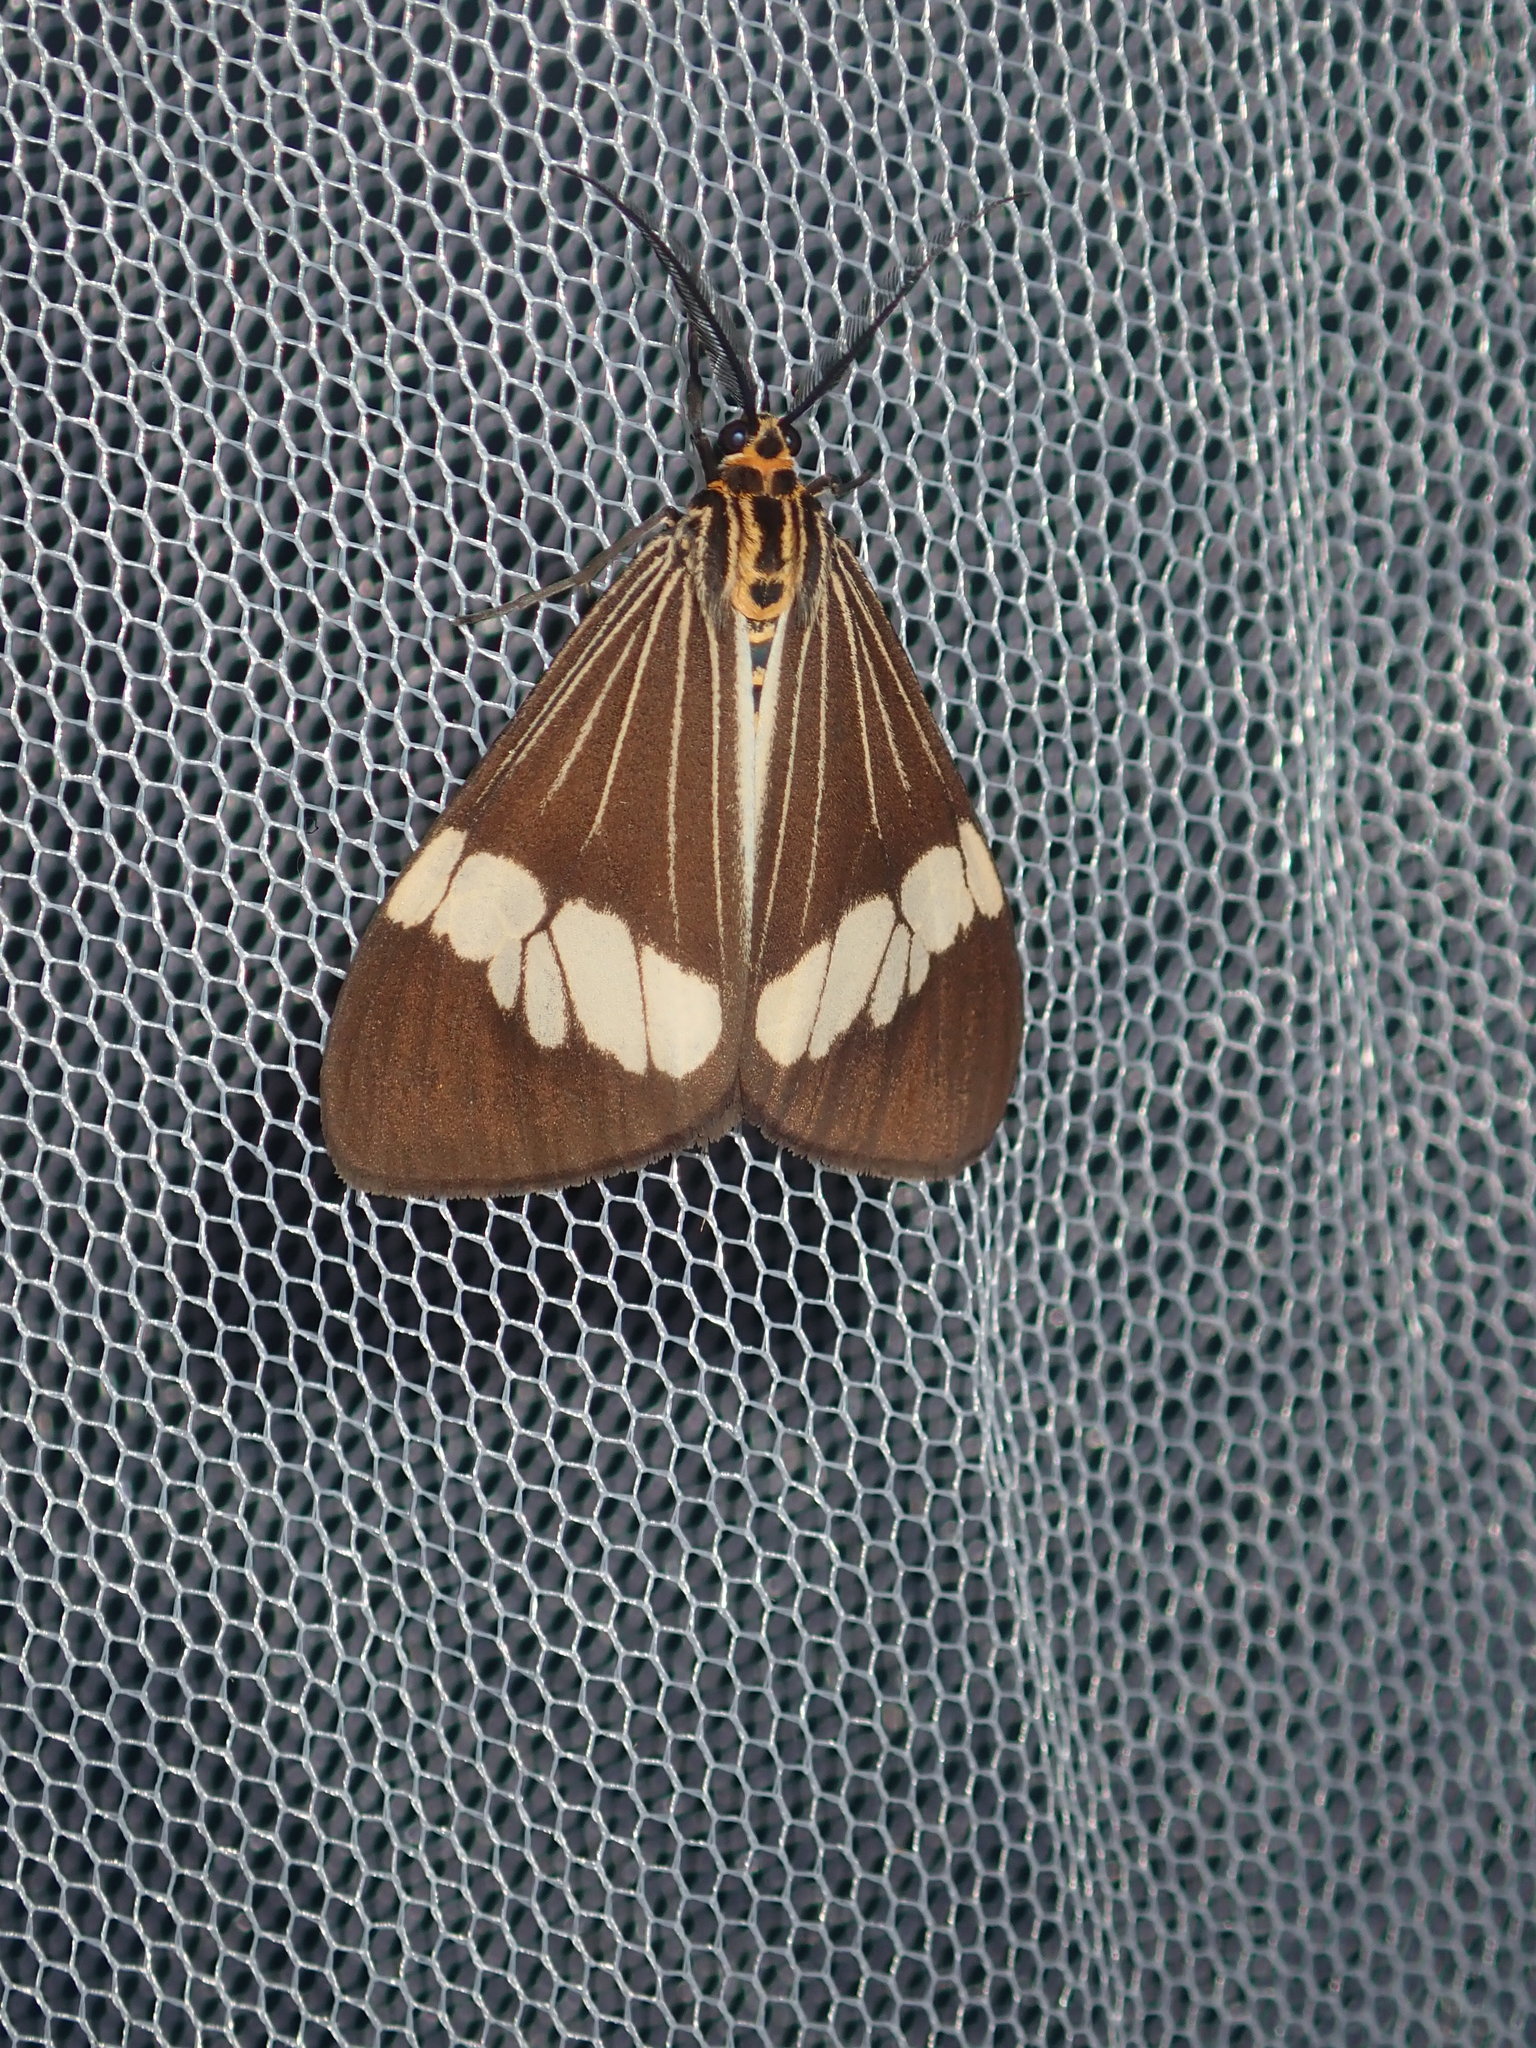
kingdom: Animalia
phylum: Arthropoda
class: Insecta
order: Lepidoptera
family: Erebidae
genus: Nyctemera
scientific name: Nyctemera baulus
